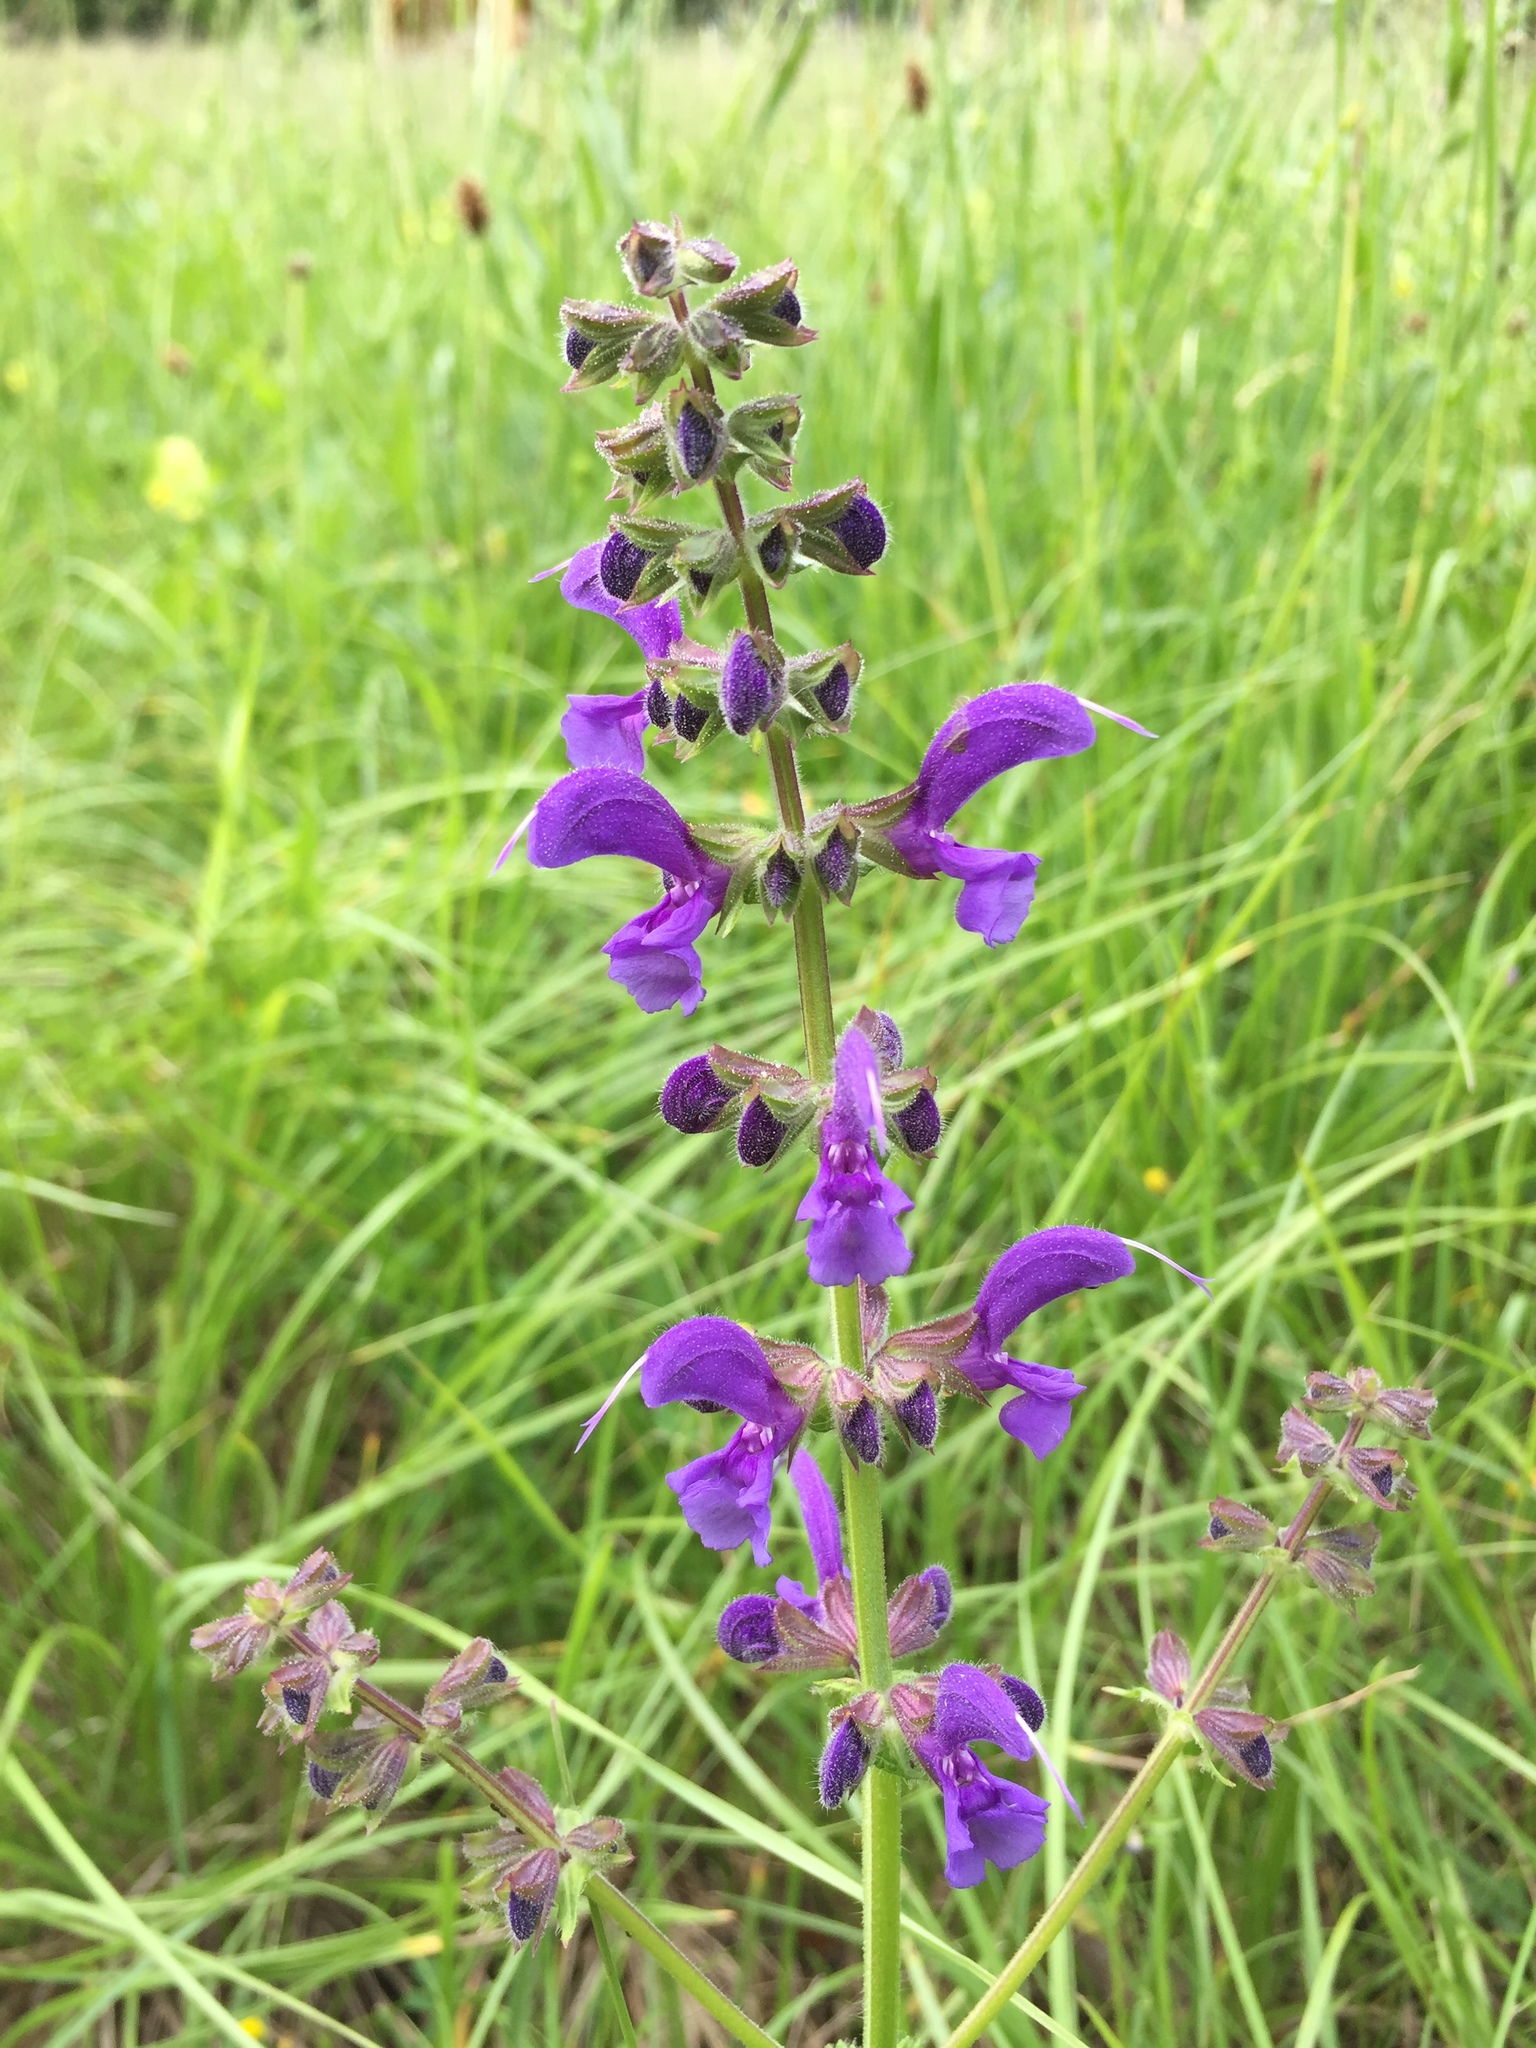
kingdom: Plantae
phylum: Tracheophyta
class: Magnoliopsida
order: Lamiales
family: Lamiaceae
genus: Salvia
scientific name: Salvia pratensis
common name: Meadow sage
